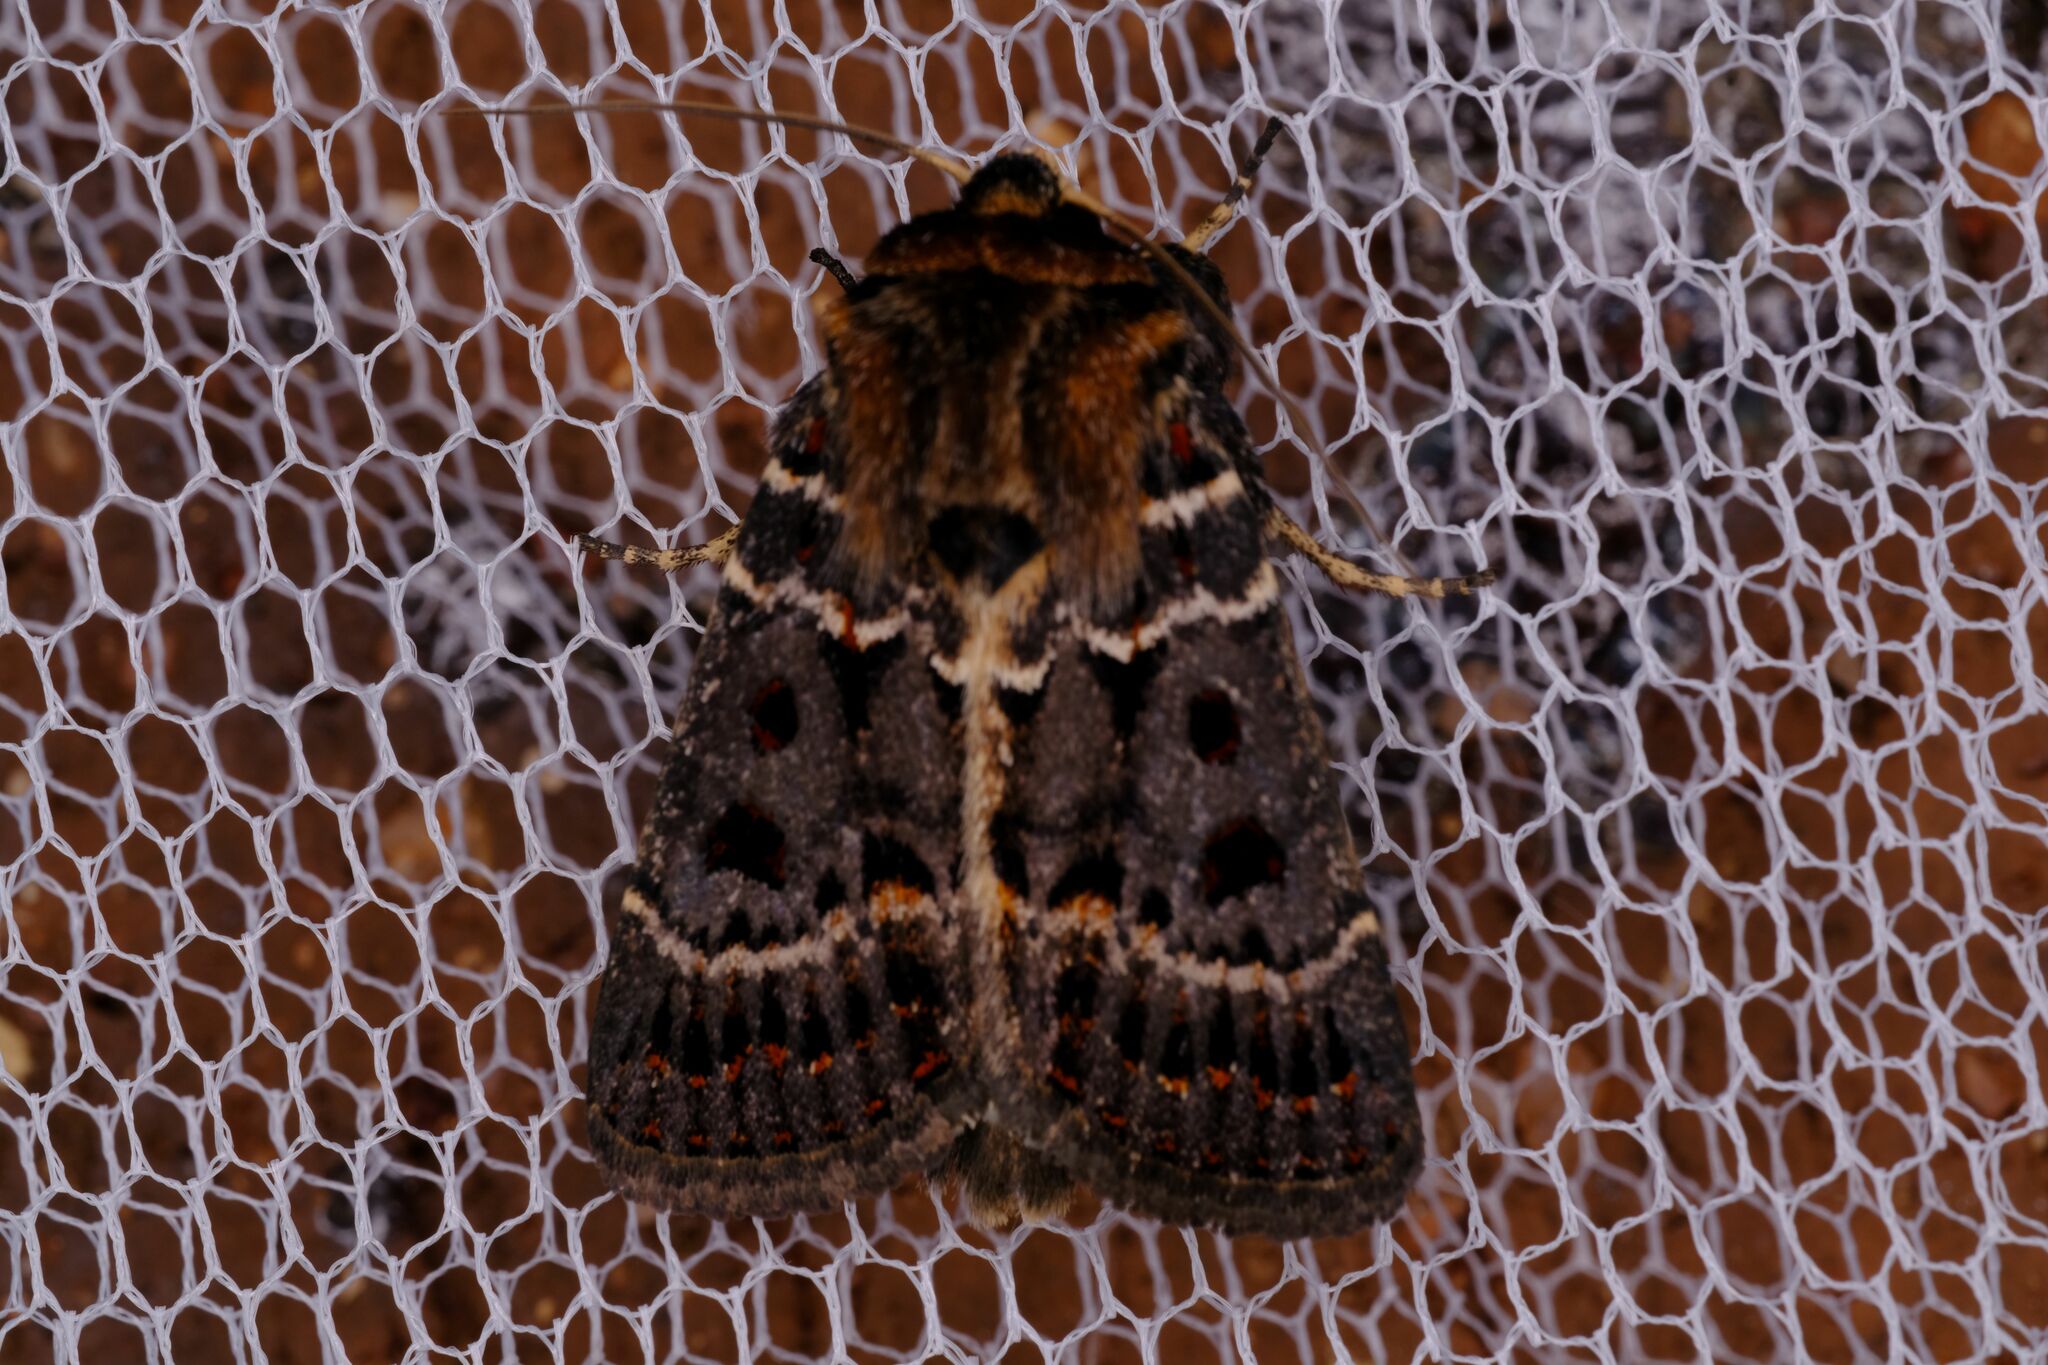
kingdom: Animalia
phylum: Arthropoda
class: Insecta
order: Lepidoptera
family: Noctuidae
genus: Proteuxoa
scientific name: Proteuxoa sanguinipuncta
